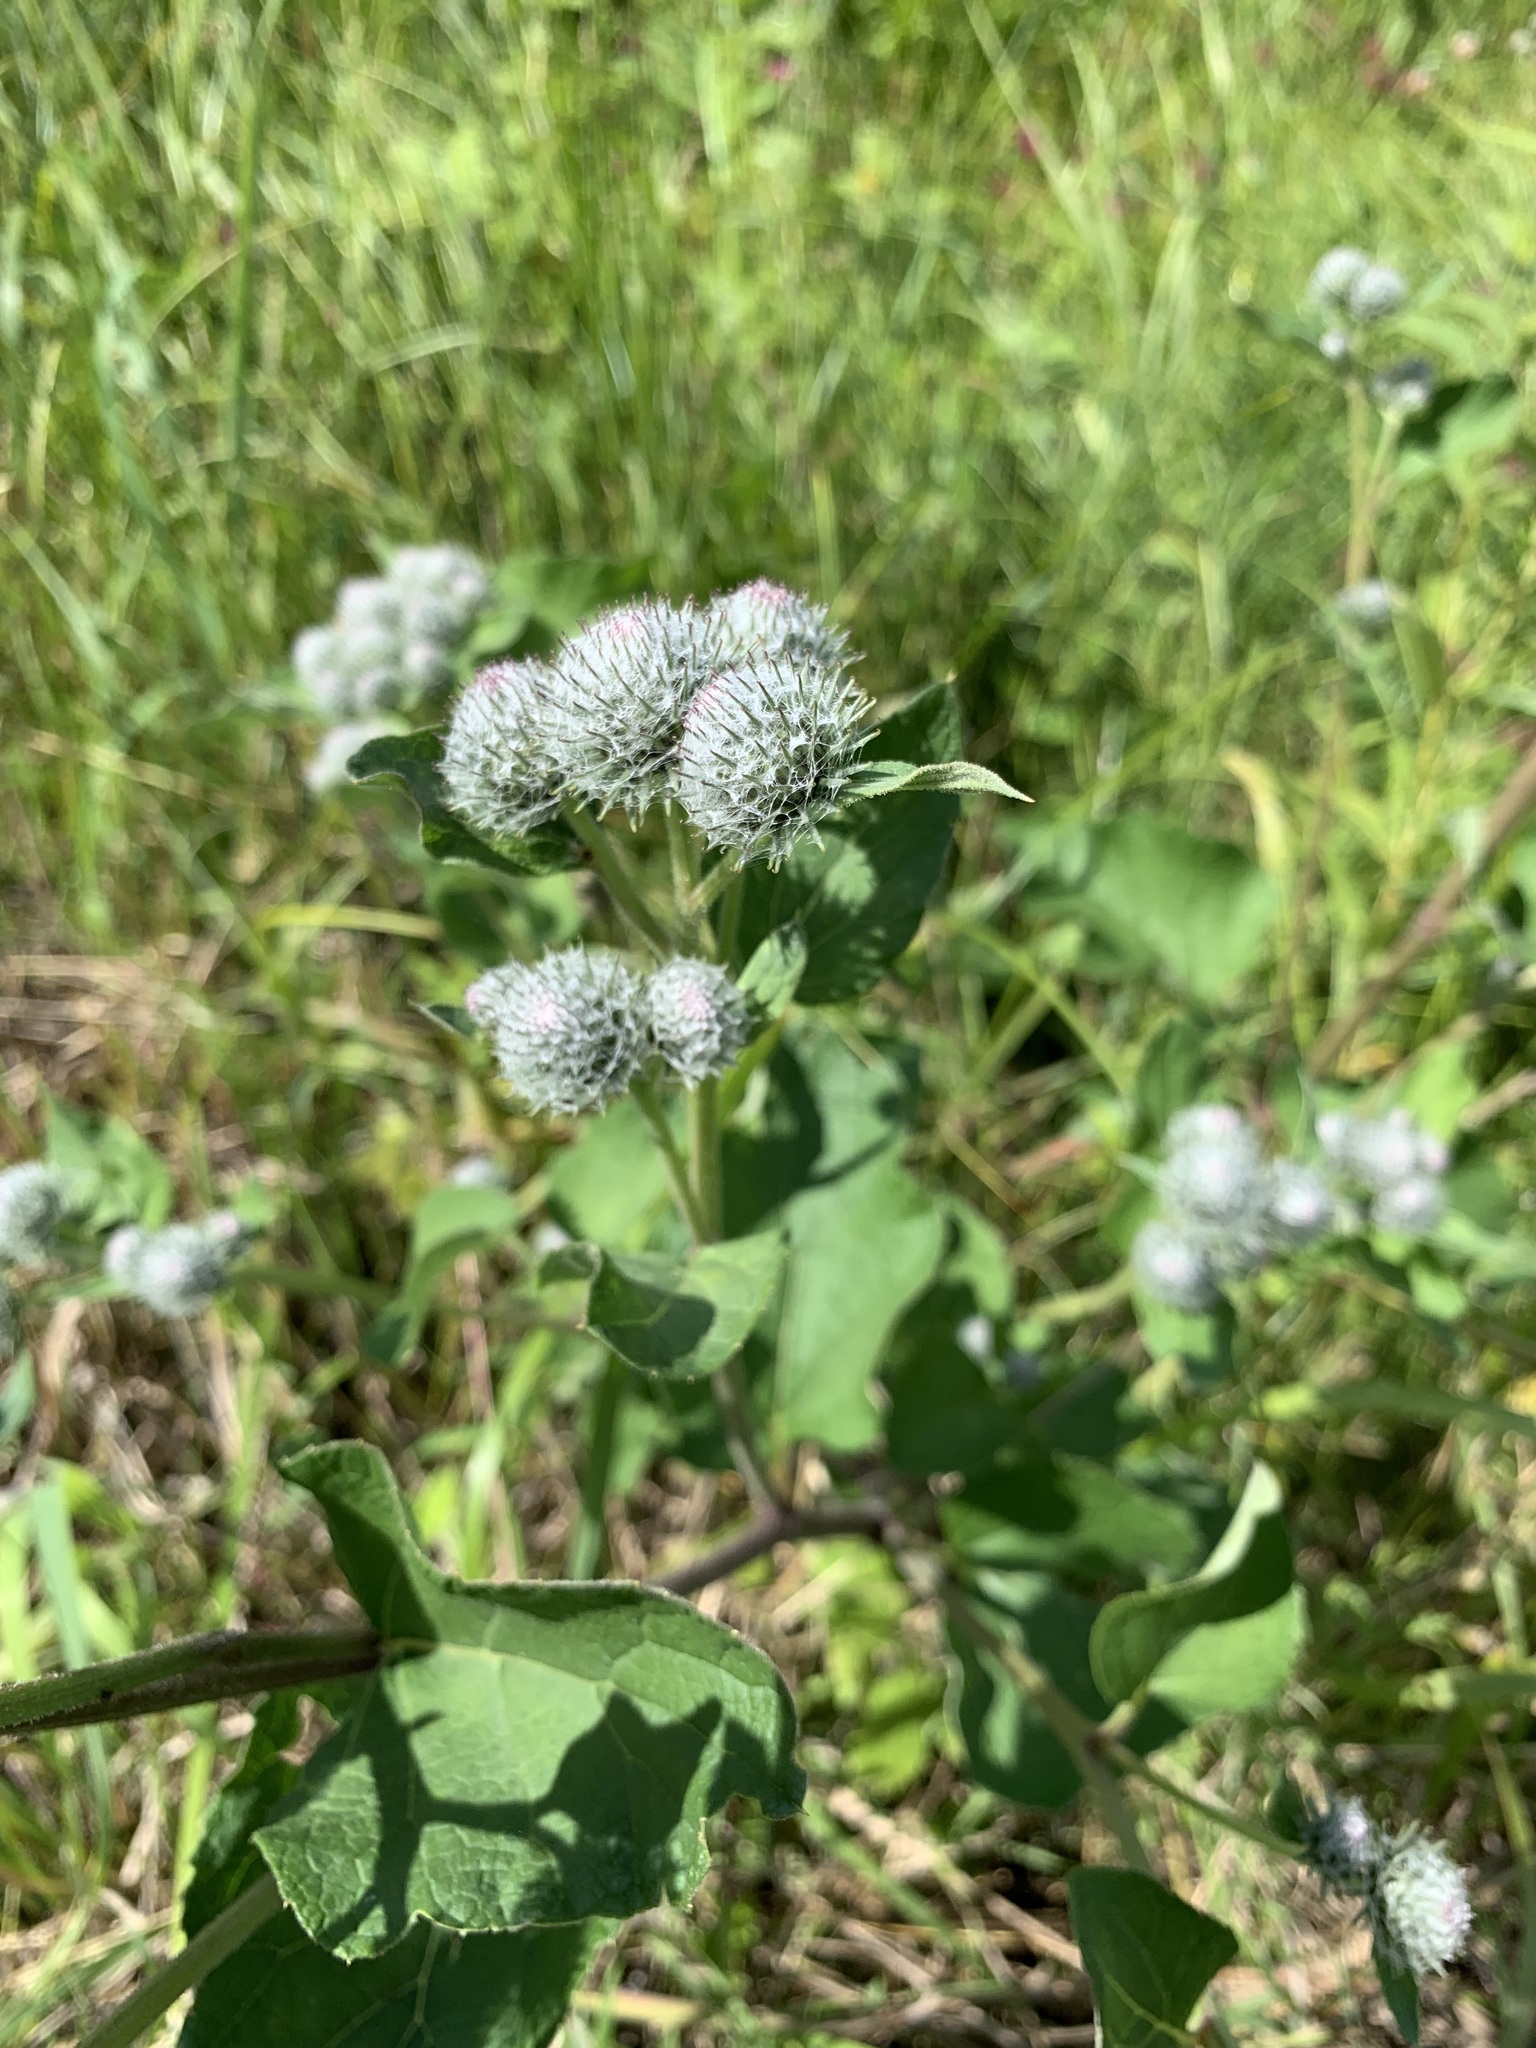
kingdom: Plantae
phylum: Tracheophyta
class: Magnoliopsida
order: Asterales
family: Asteraceae
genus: Arctium
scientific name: Arctium tomentosum
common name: Woolly burdock
